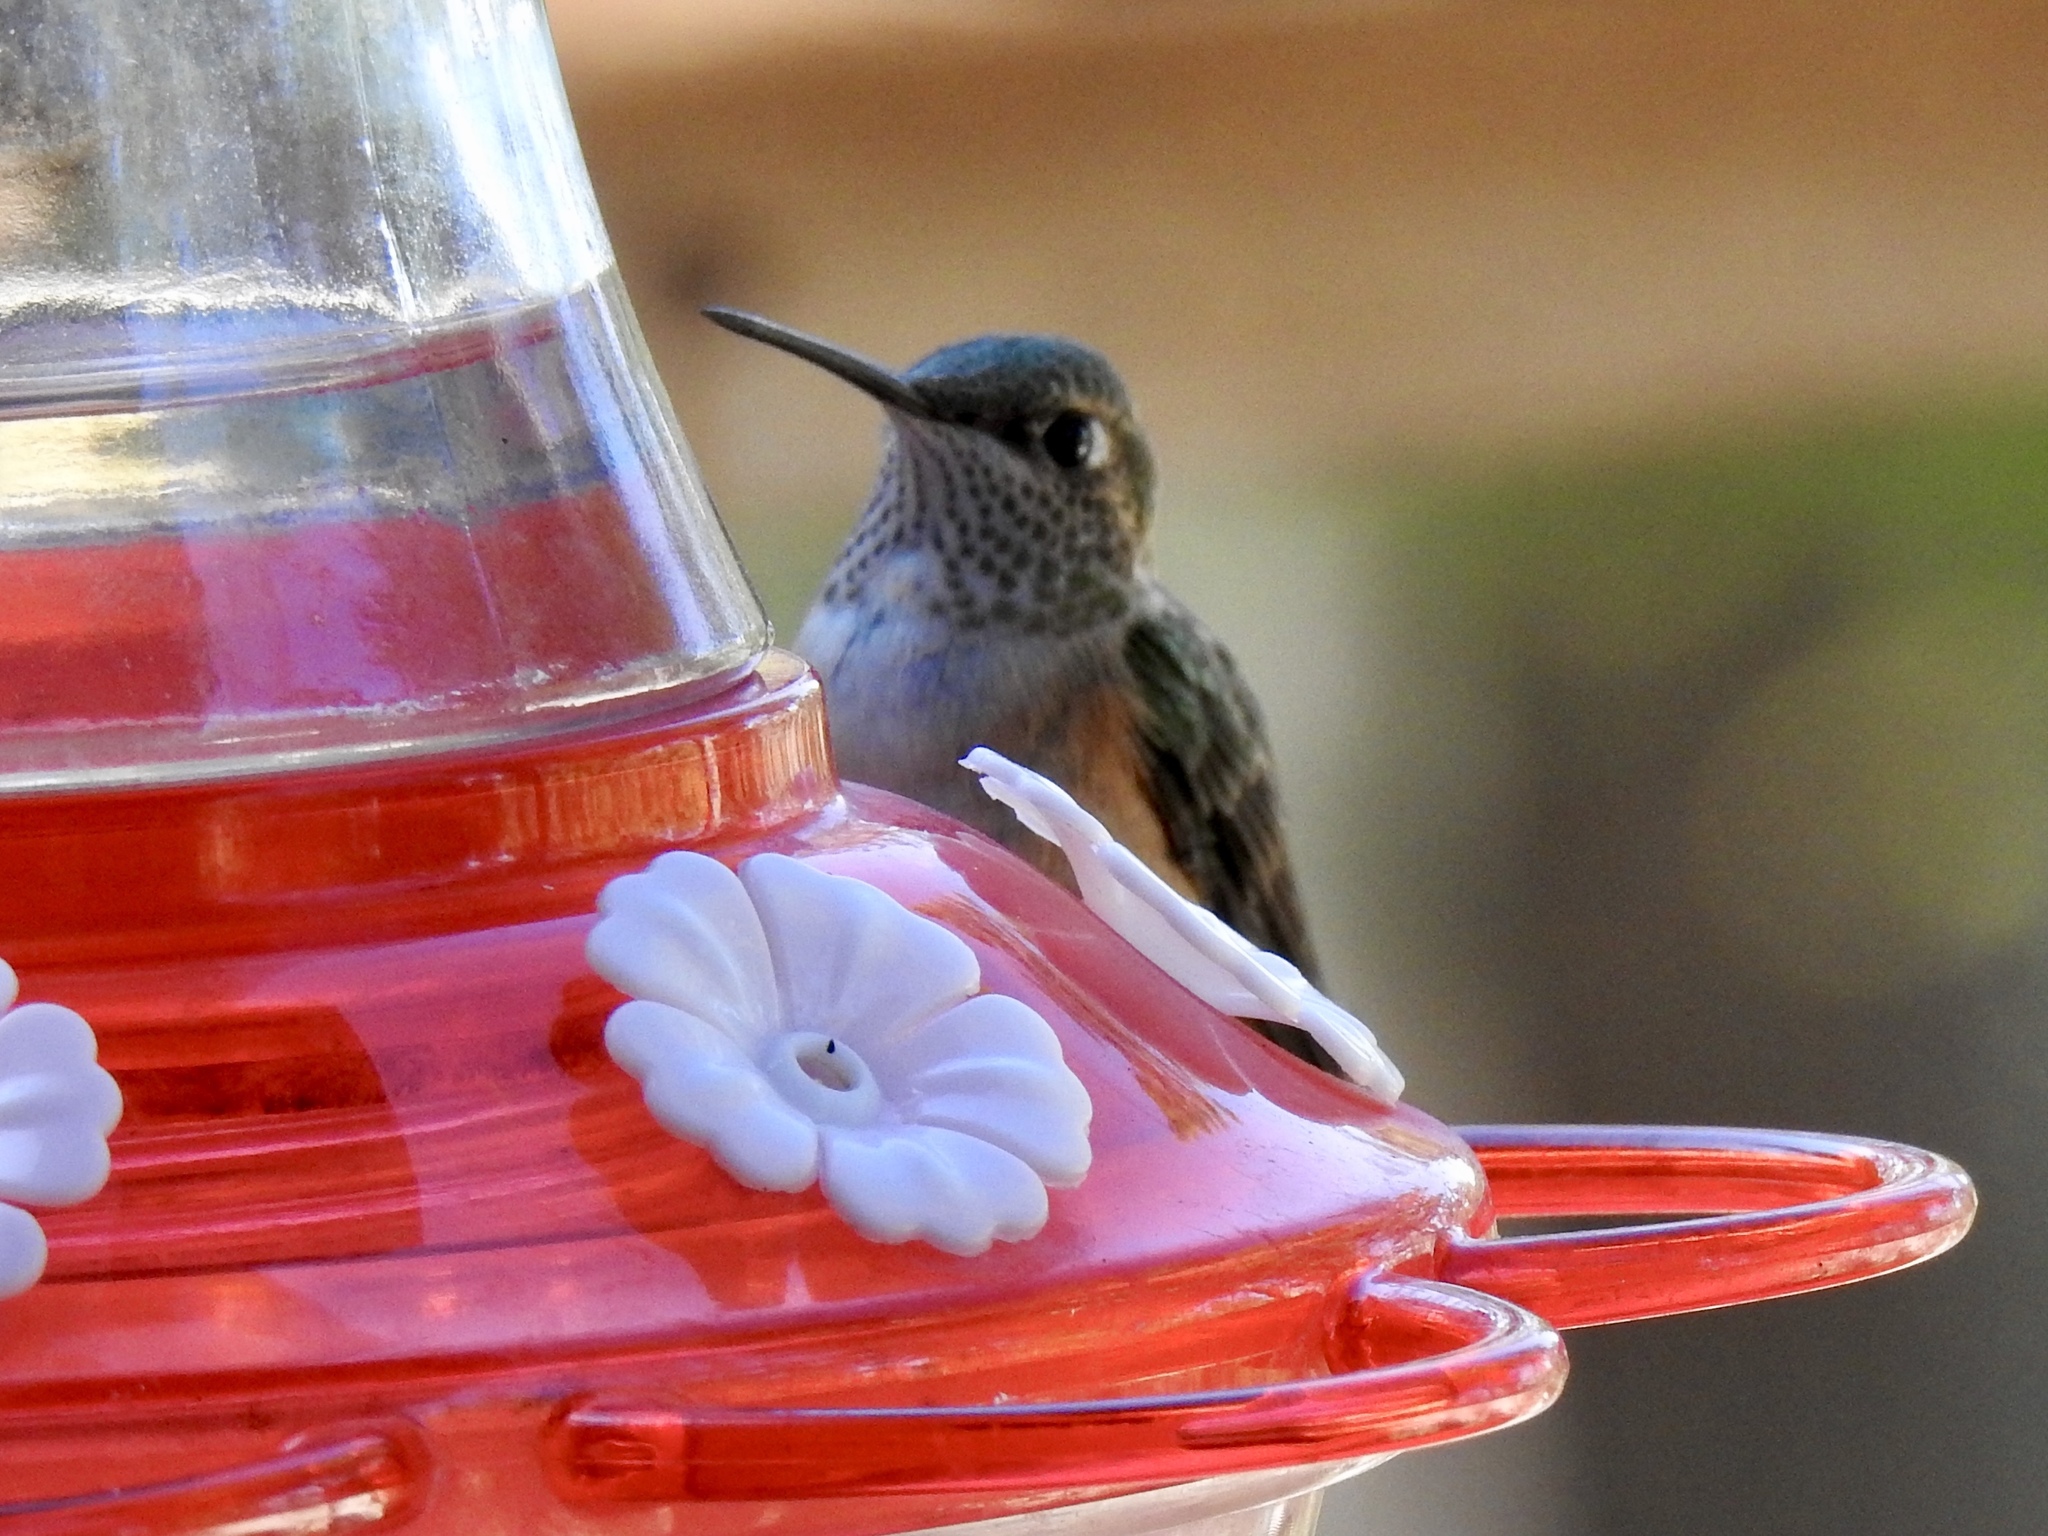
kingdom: Animalia
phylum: Chordata
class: Aves
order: Apodiformes
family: Trochilidae
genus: Selasphorus
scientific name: Selasphorus platycercus
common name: Broad-tailed hummingbird
